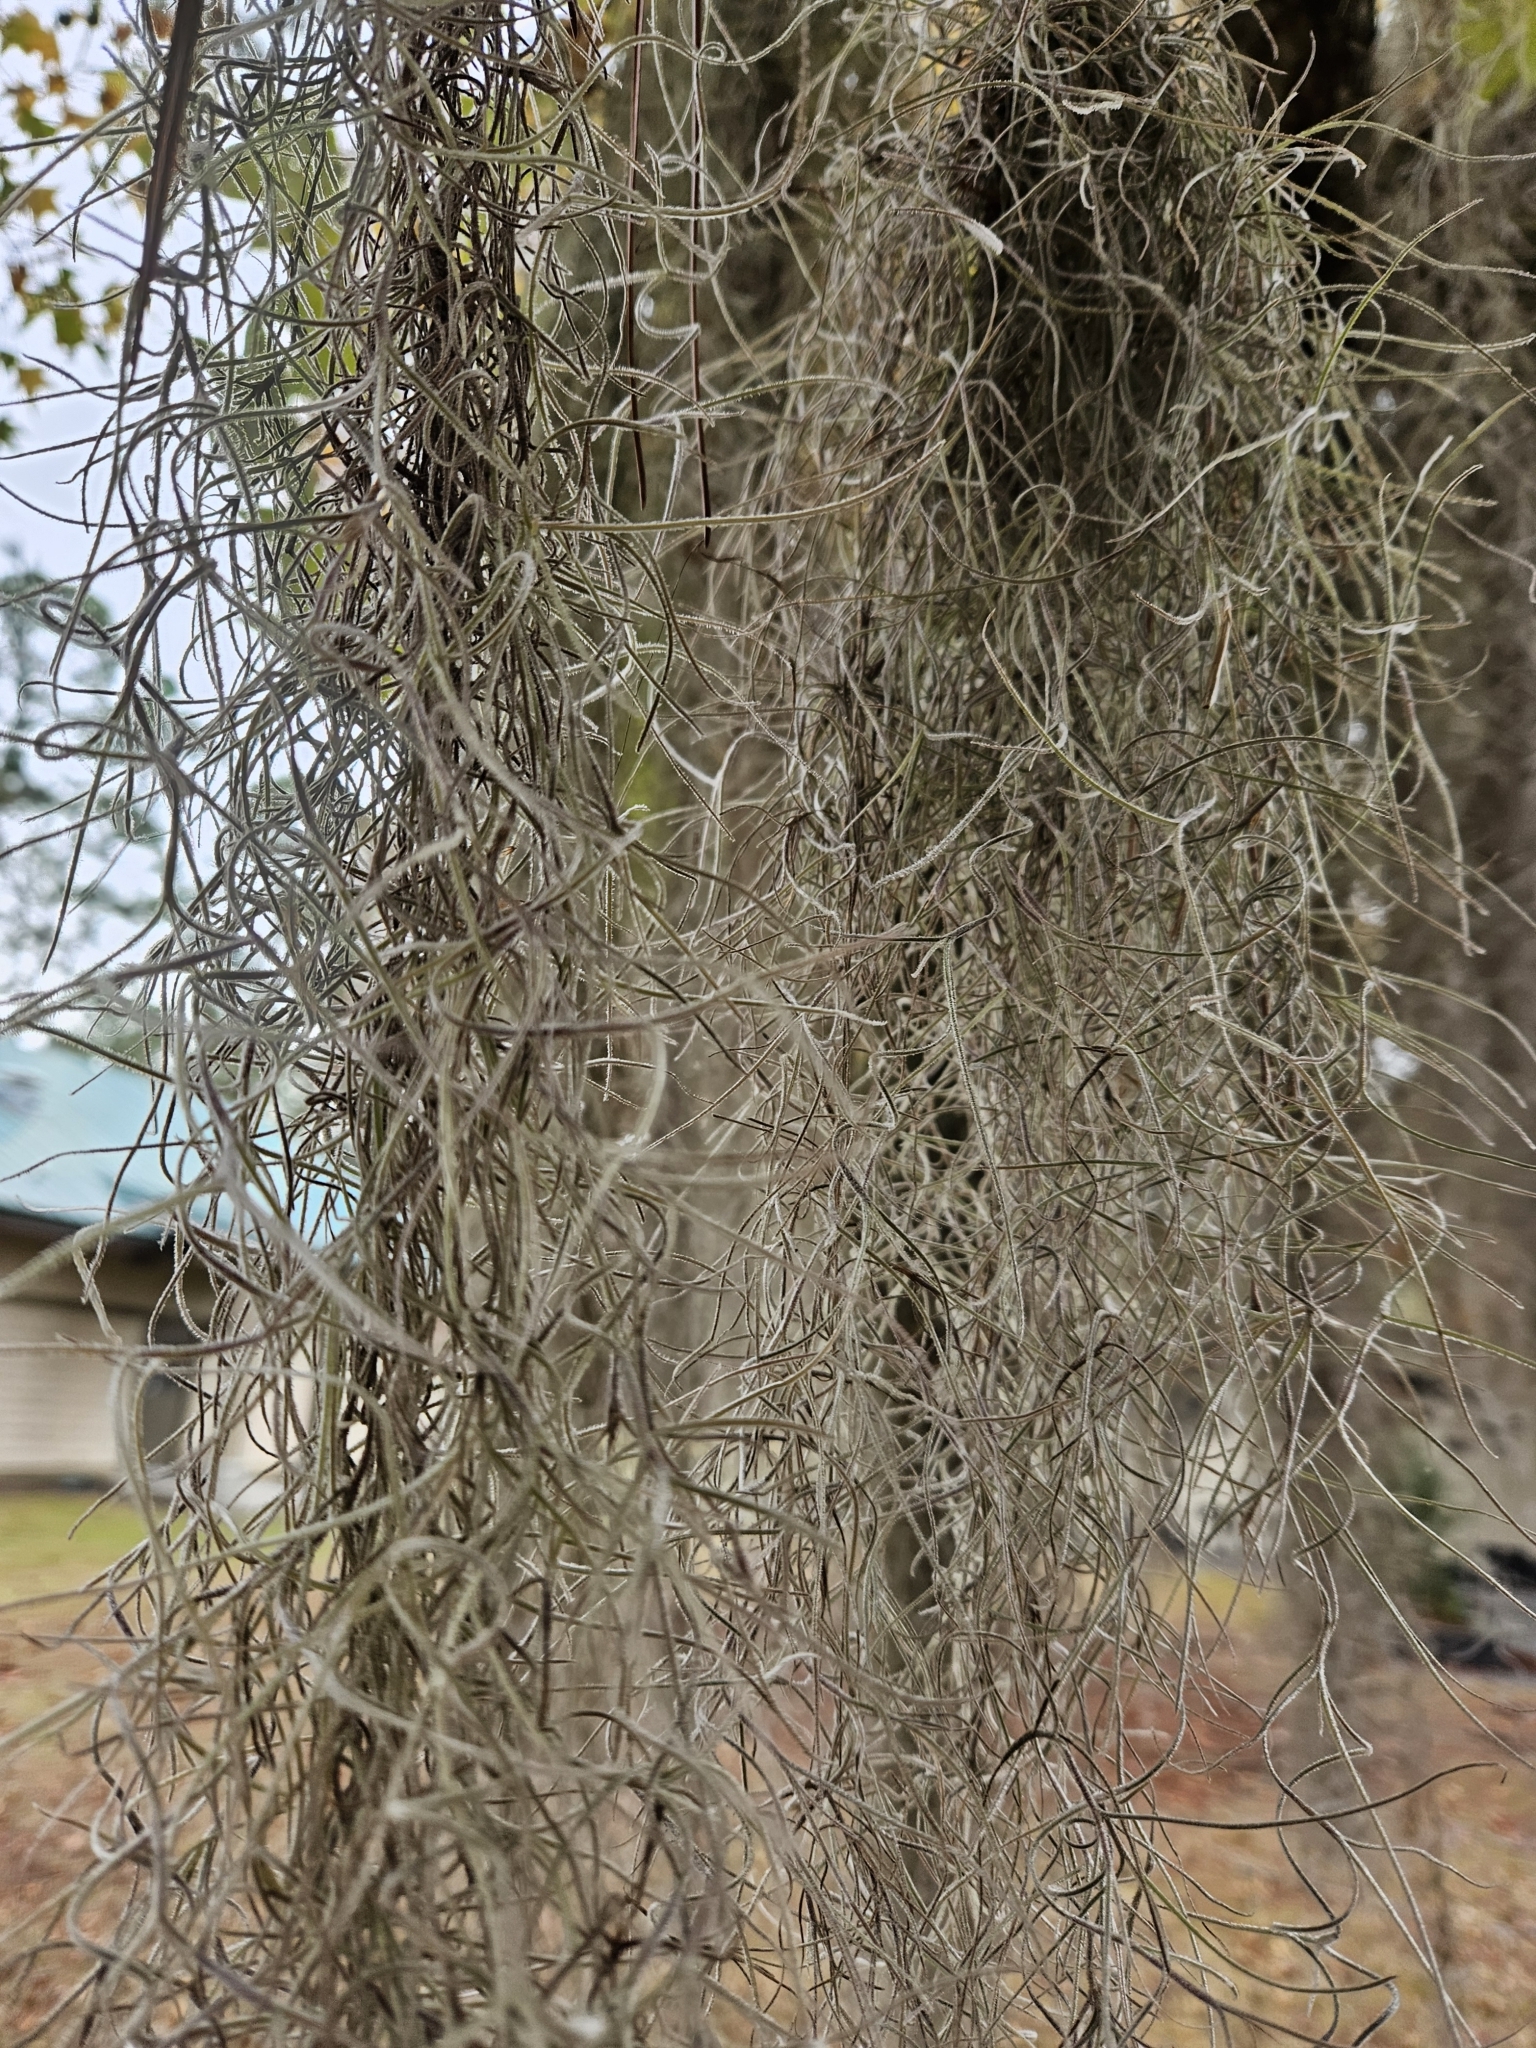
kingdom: Plantae
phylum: Tracheophyta
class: Liliopsida
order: Poales
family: Bromeliaceae
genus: Tillandsia
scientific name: Tillandsia usneoides
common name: Spanish moss
